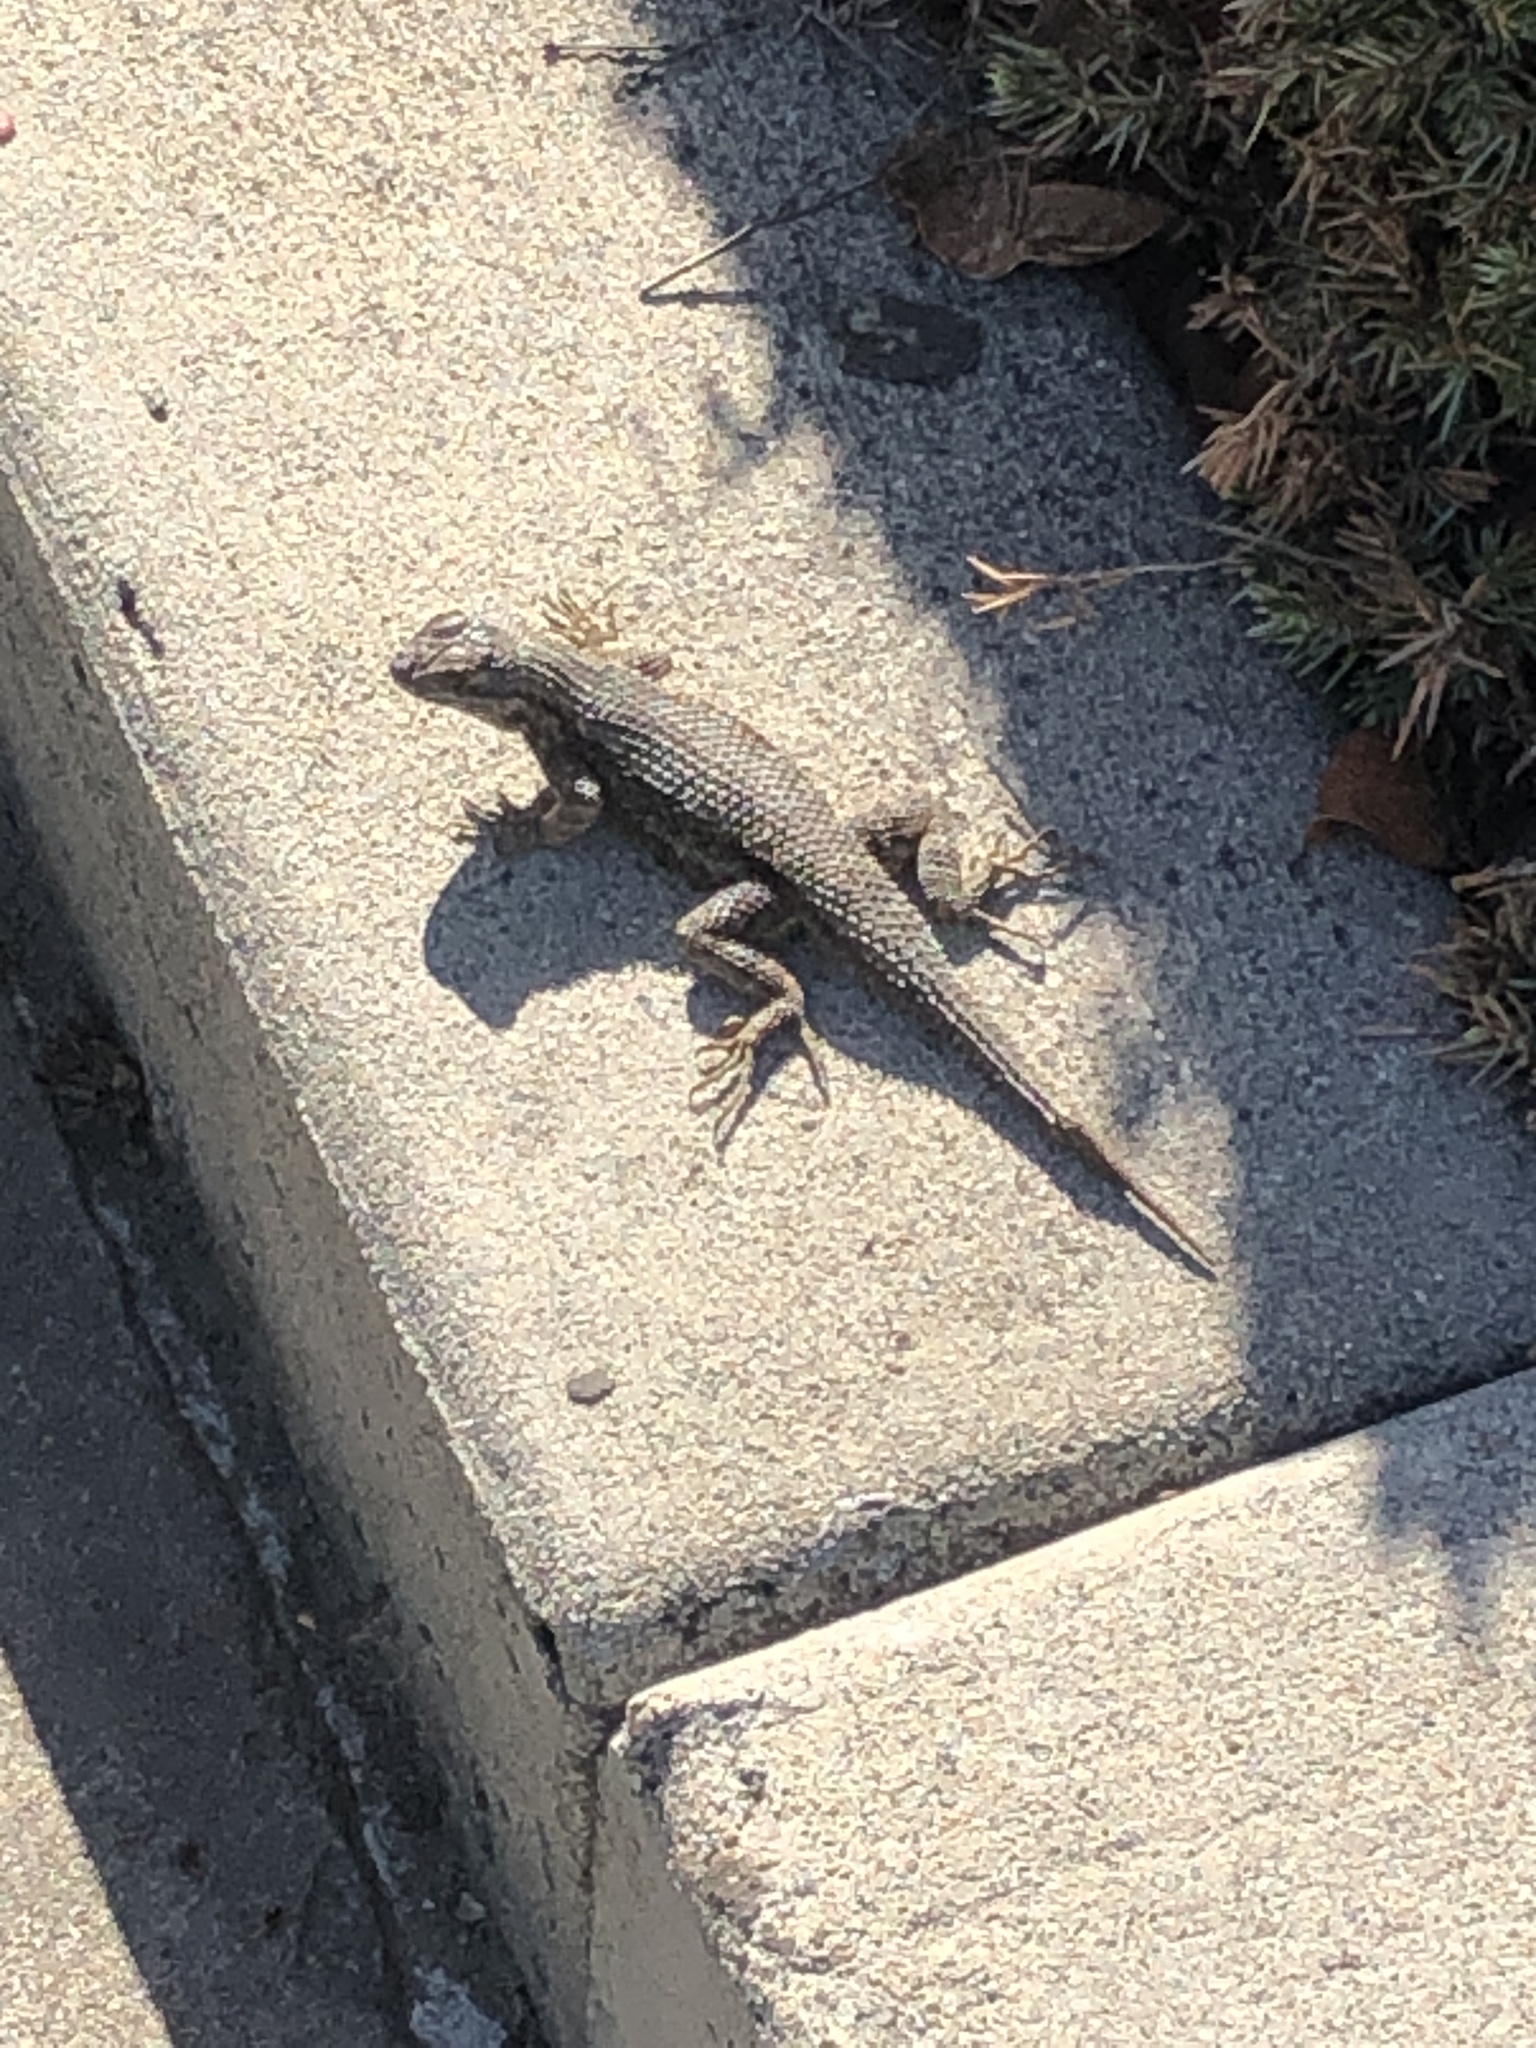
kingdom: Animalia
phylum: Chordata
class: Squamata
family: Phrynosomatidae
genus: Sceloporus
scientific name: Sceloporus occidentalis
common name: Western fence lizard
